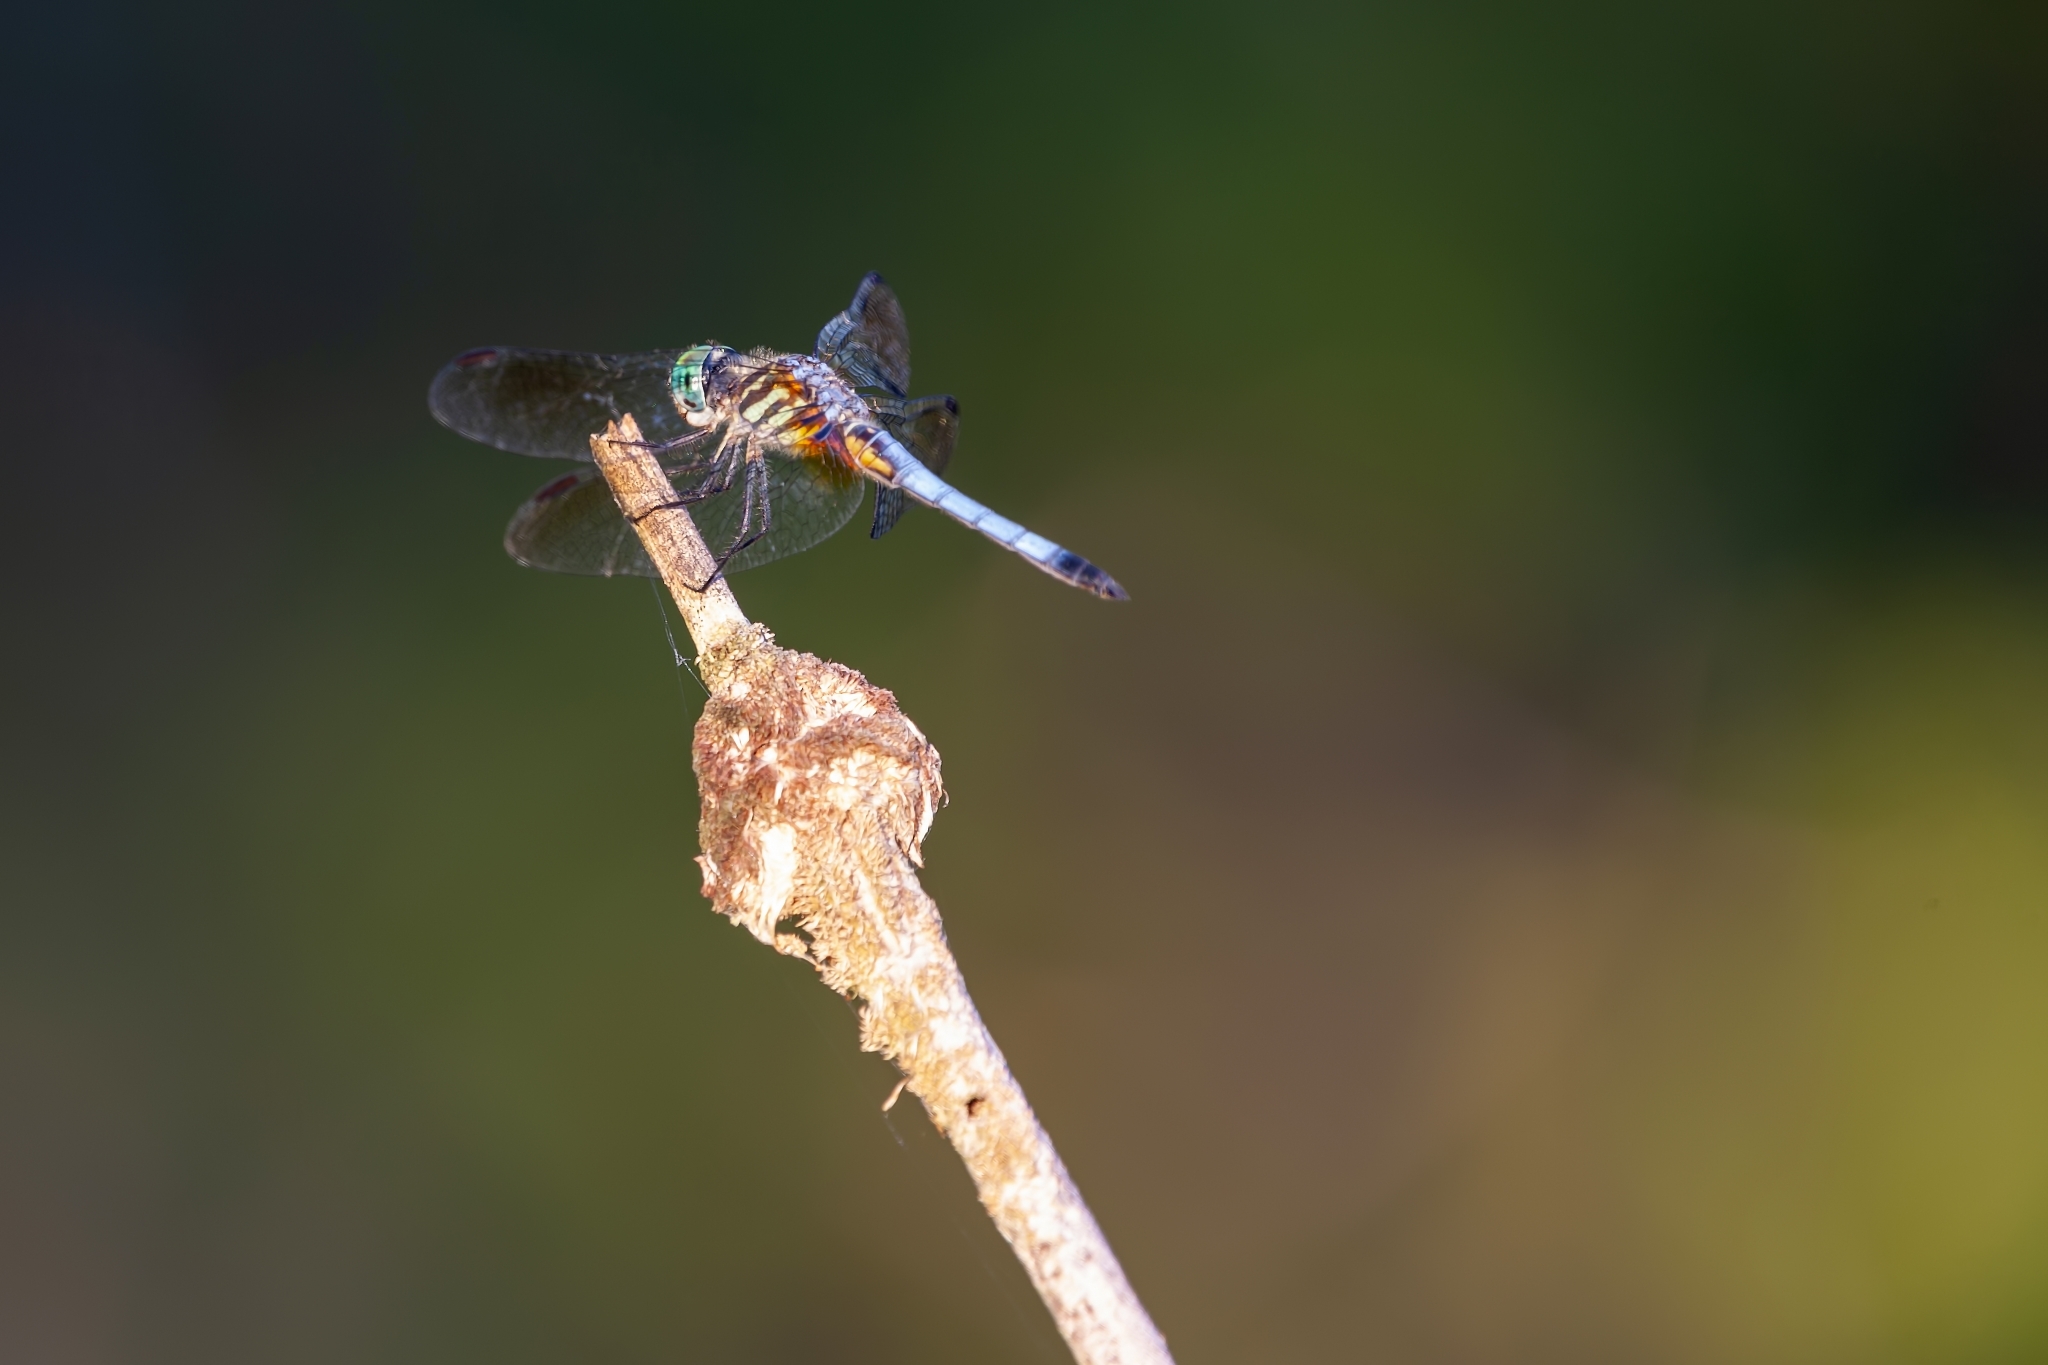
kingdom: Animalia
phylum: Arthropoda
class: Insecta
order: Odonata
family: Libellulidae
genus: Pachydiplax
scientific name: Pachydiplax longipennis
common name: Blue dasher
